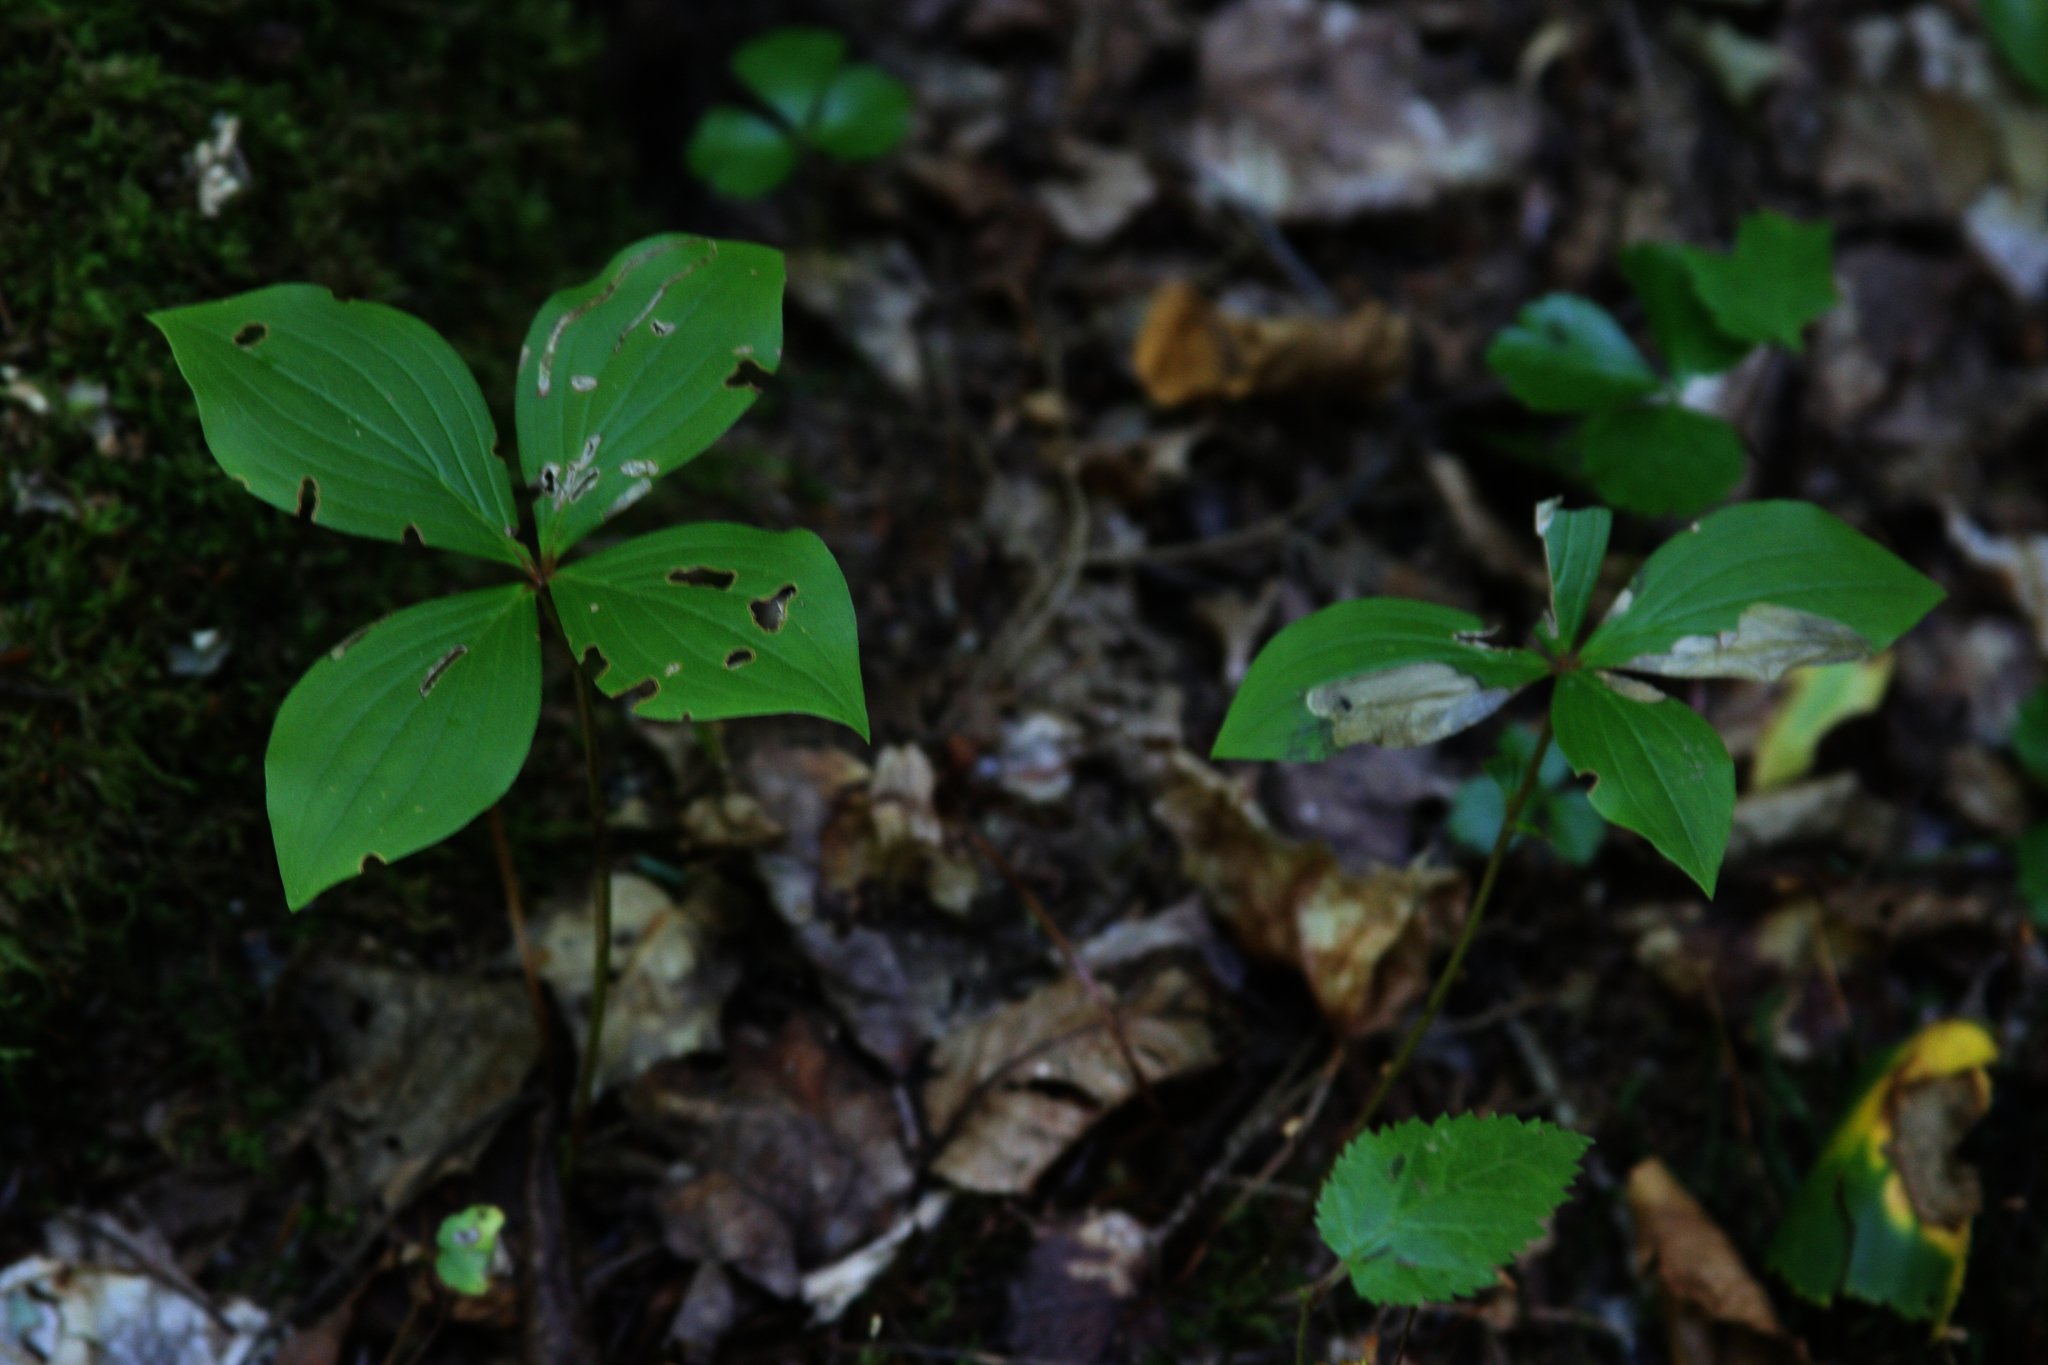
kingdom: Plantae
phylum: Tracheophyta
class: Magnoliopsida
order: Cornales
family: Cornaceae
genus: Cornus
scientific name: Cornus canadensis
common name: Creeping dogwood
